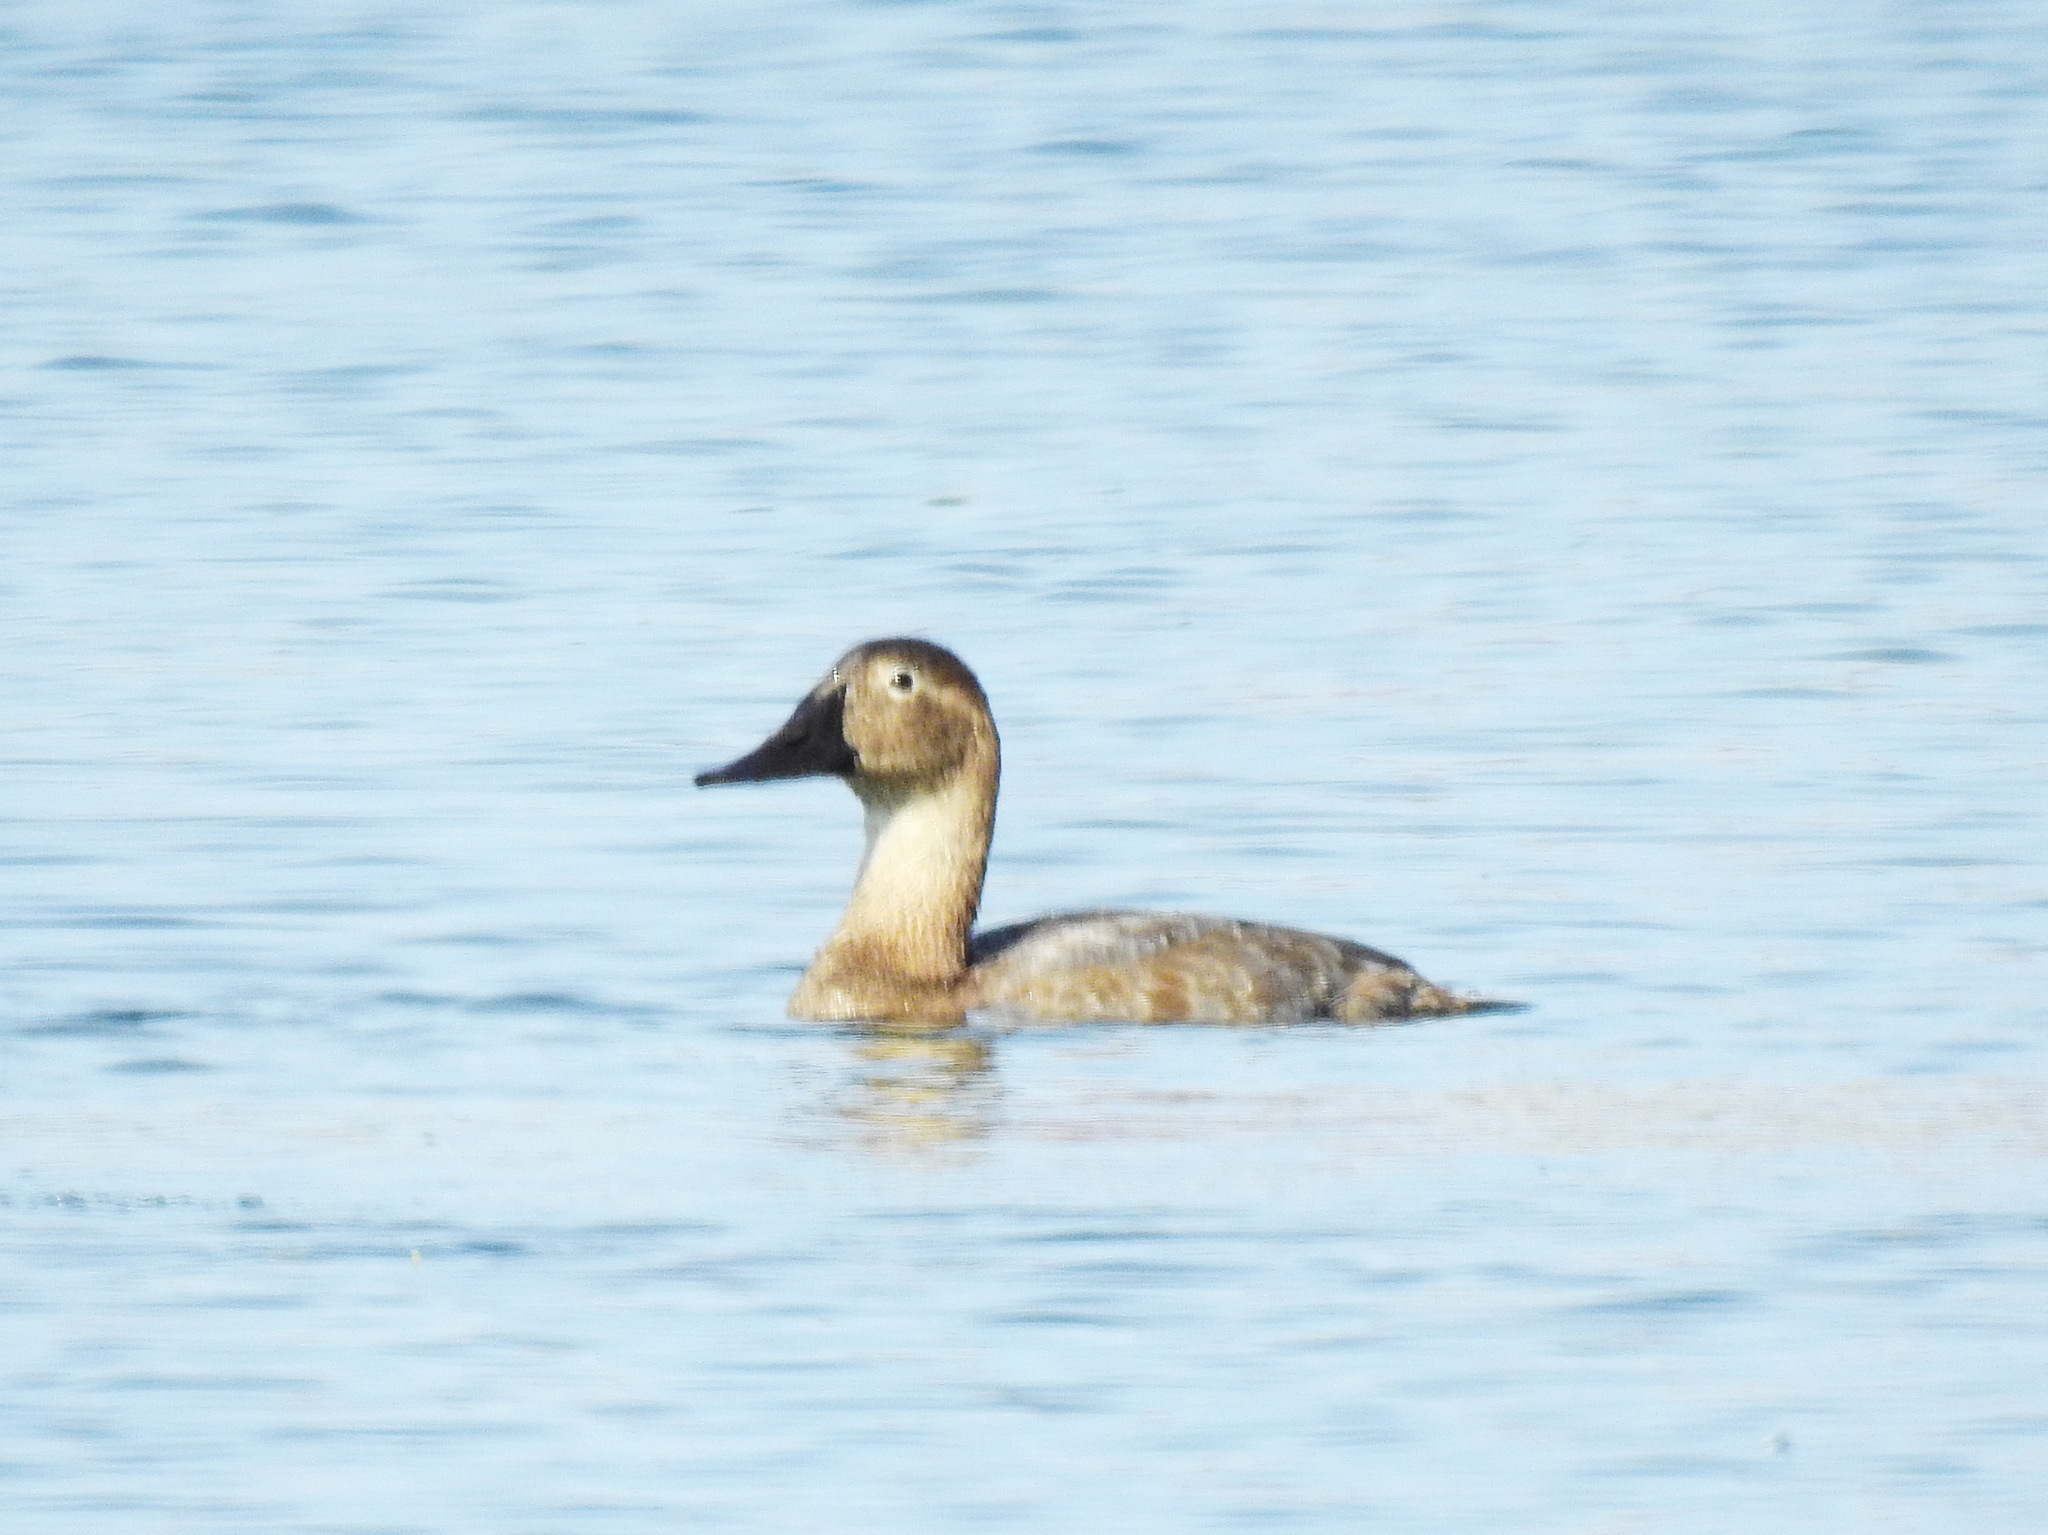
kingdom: Animalia
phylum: Chordata
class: Aves
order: Anseriformes
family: Anatidae
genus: Aythya
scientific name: Aythya valisineria
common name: Canvasback
